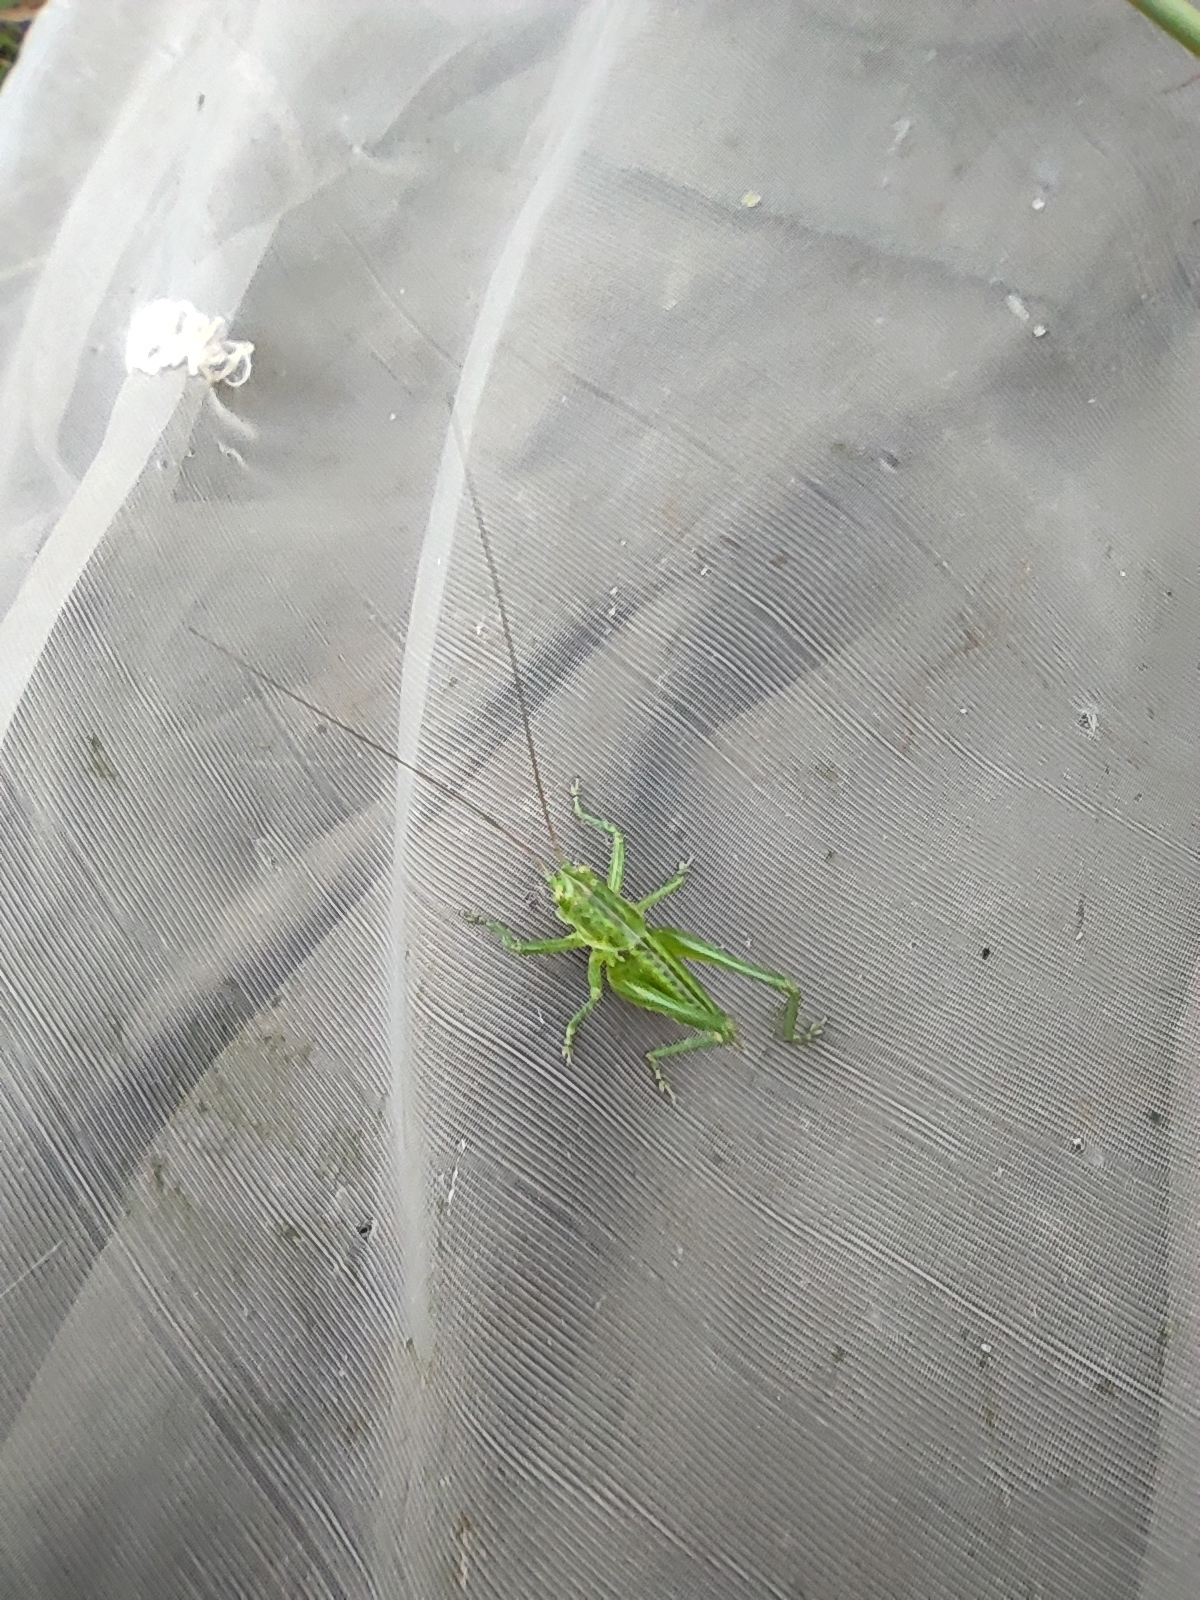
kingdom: Animalia
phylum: Arthropoda
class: Insecta
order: Orthoptera
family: Tettigoniidae
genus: Tettigonia
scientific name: Tettigonia viridissima
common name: Great green bush-cricket
